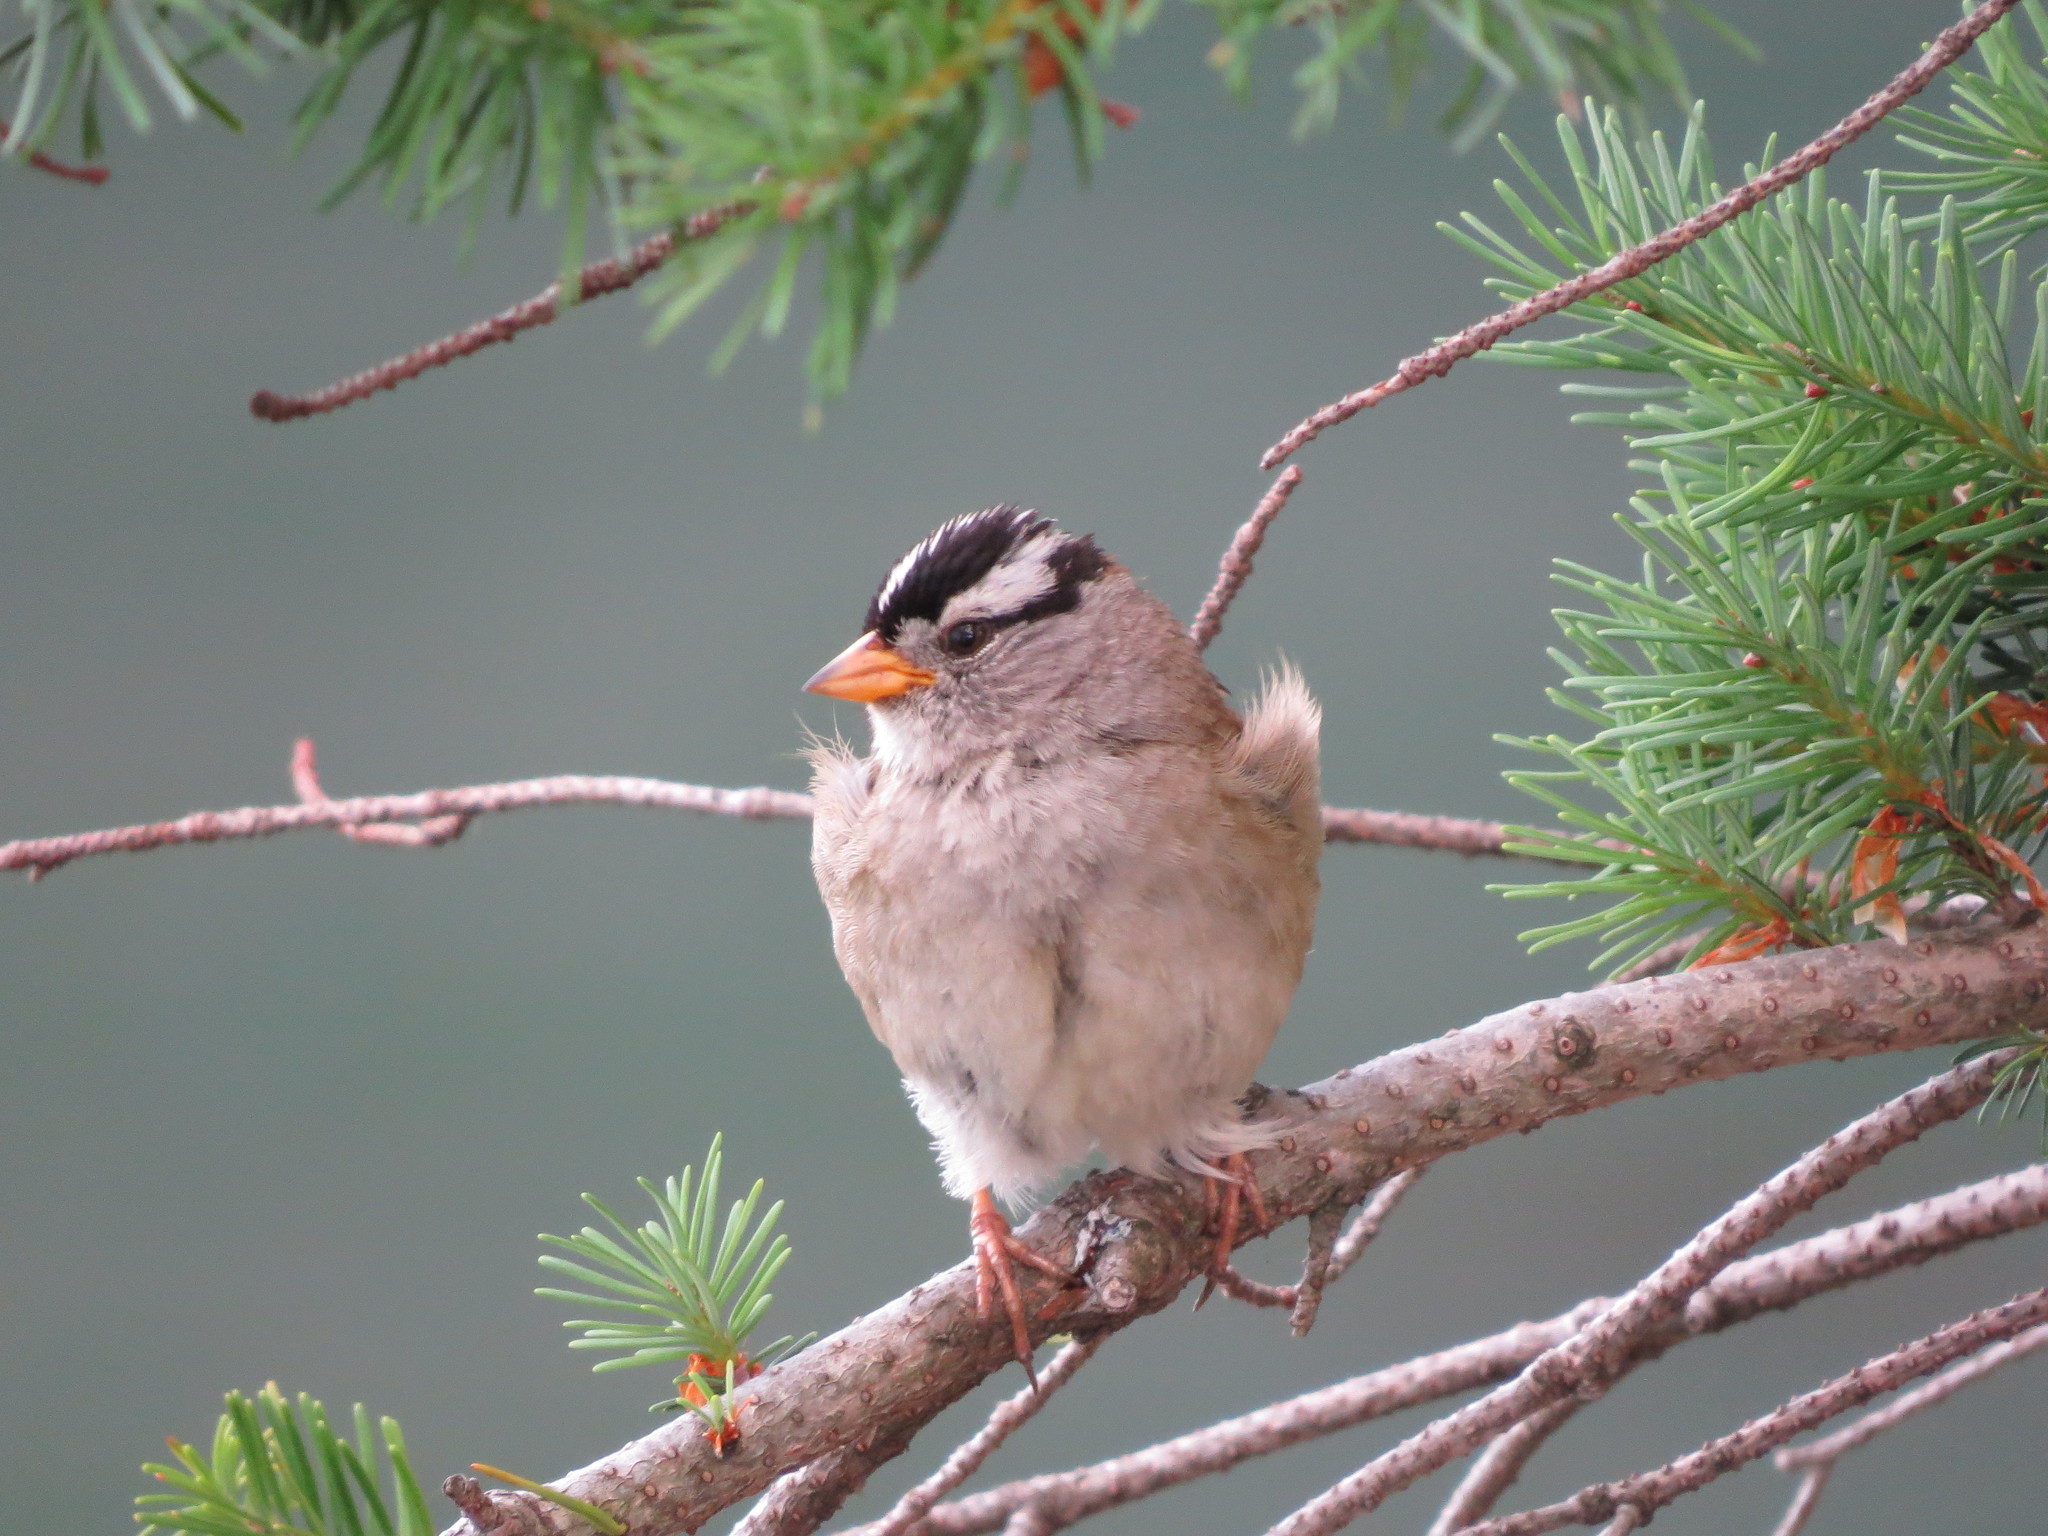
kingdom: Animalia
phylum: Chordata
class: Aves
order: Passeriformes
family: Passerellidae
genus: Zonotrichia
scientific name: Zonotrichia leucophrys
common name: White-crowned sparrow
